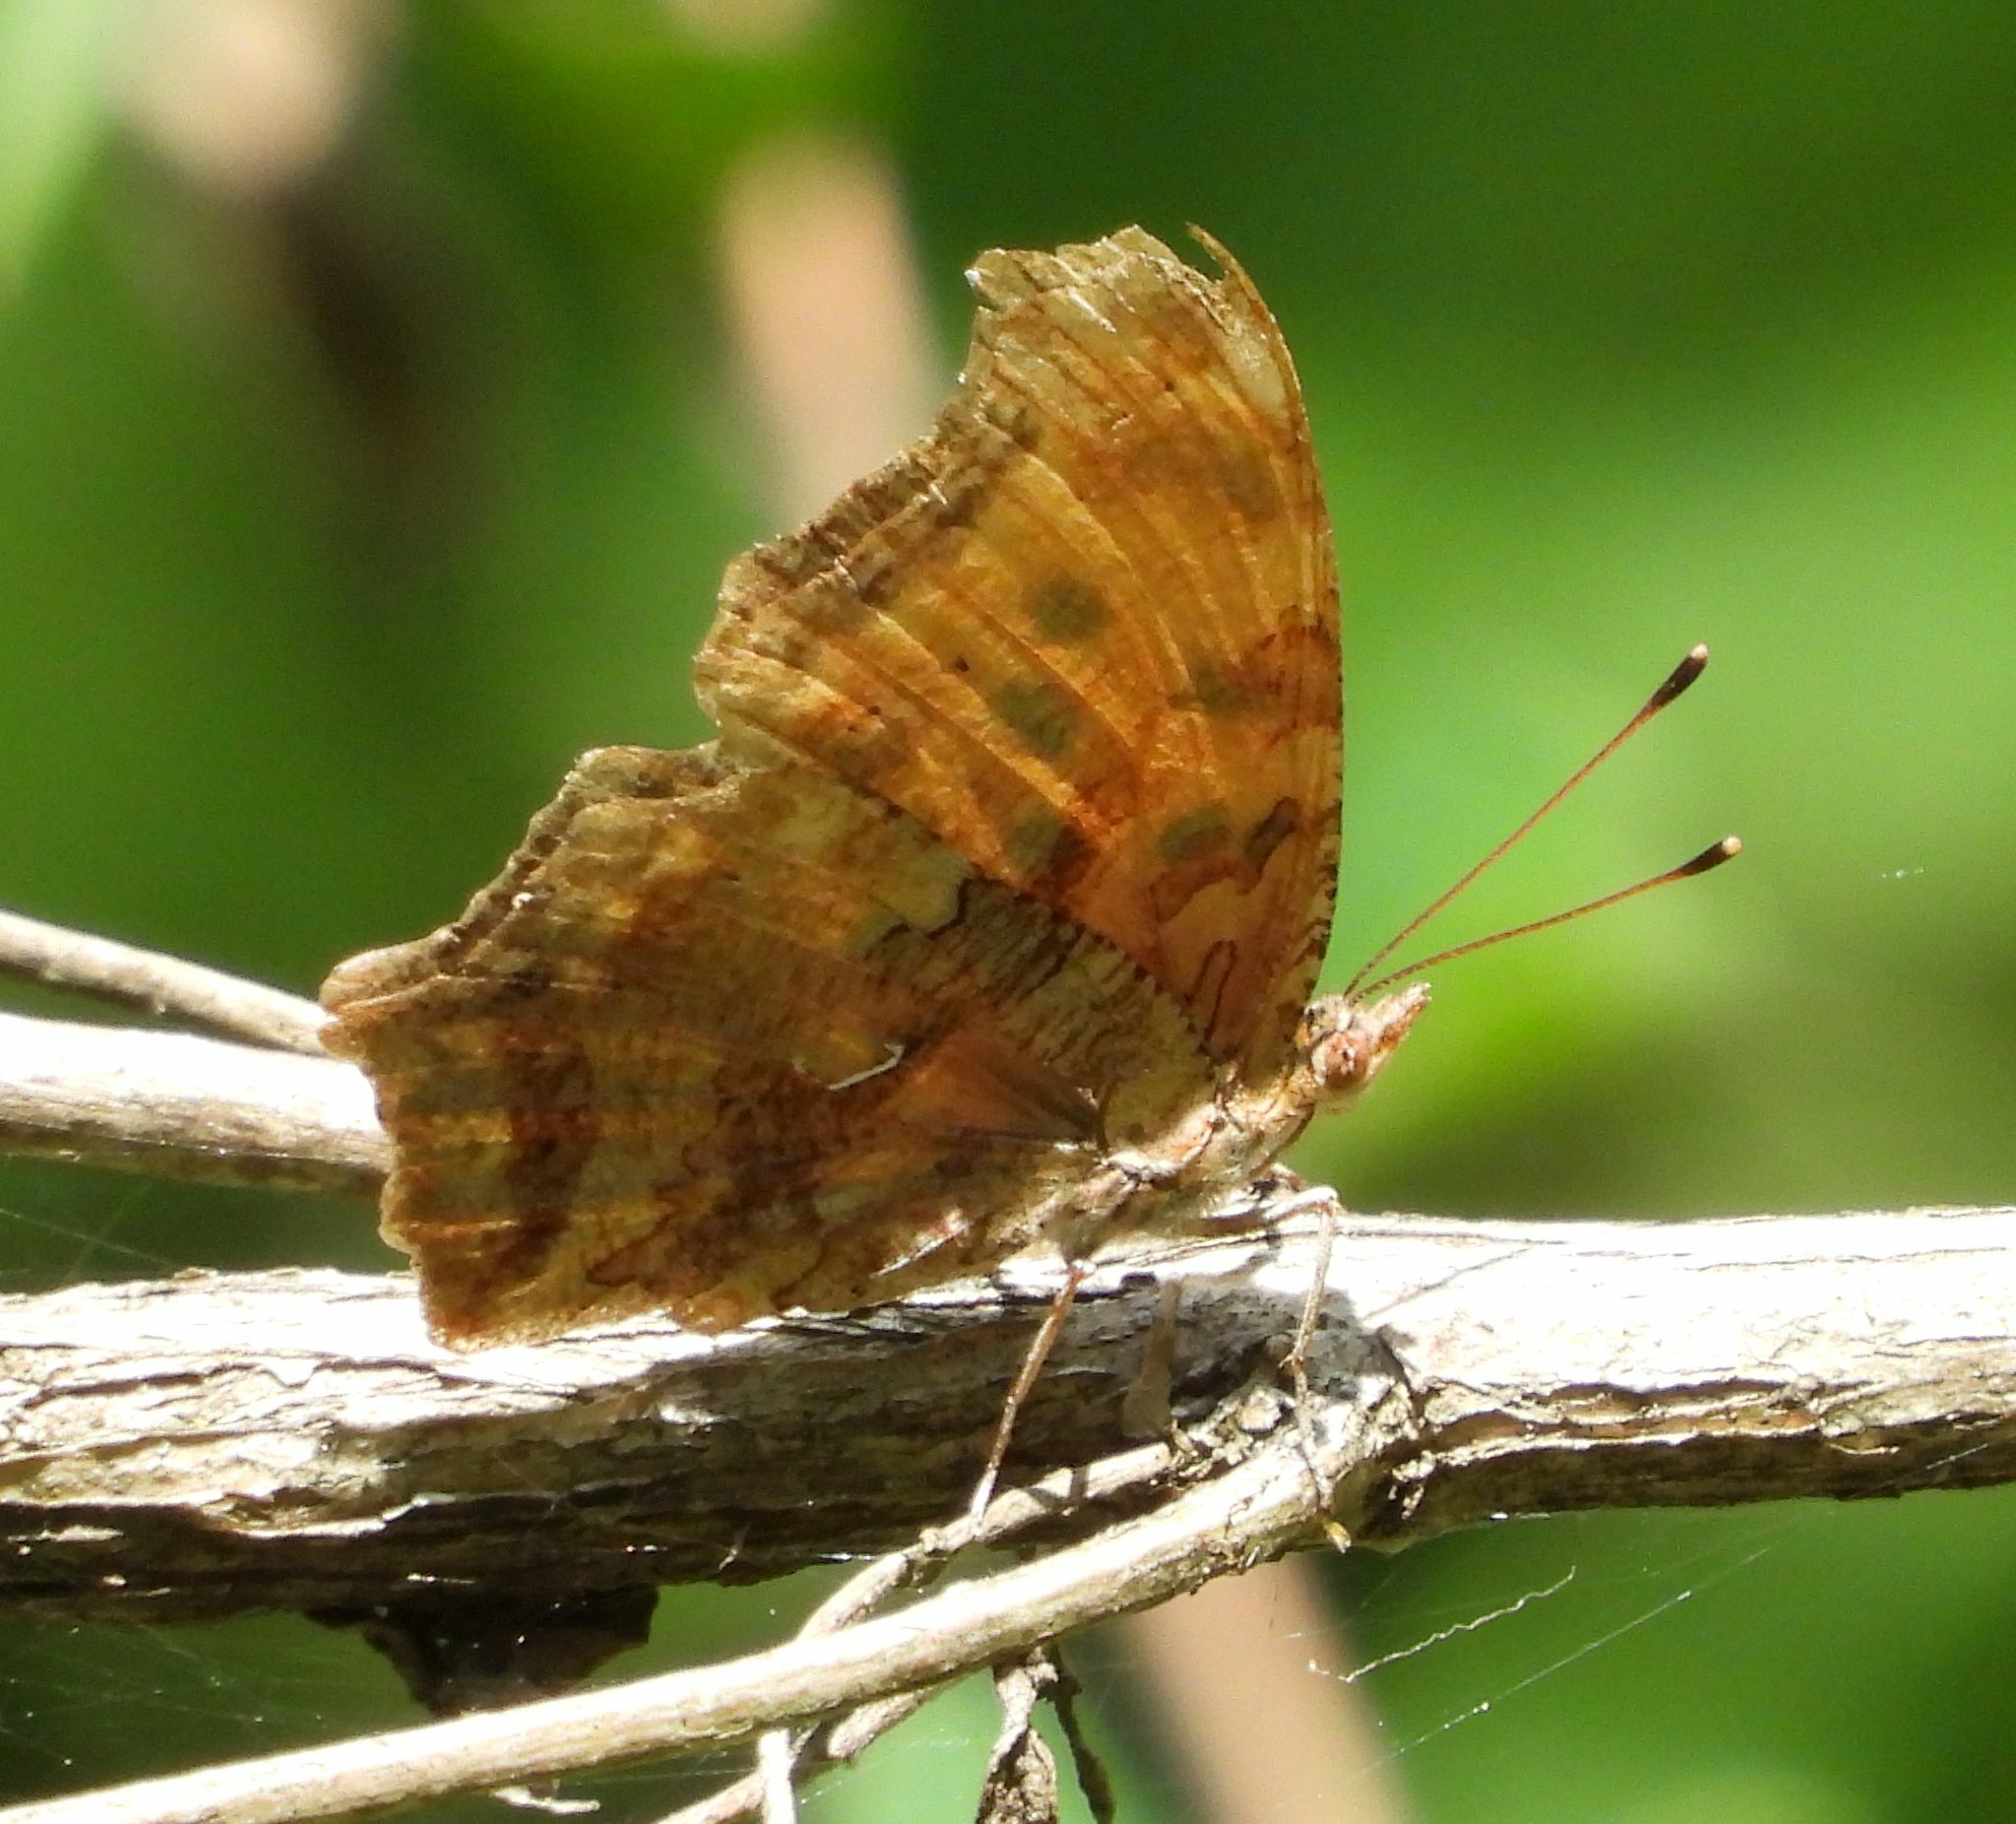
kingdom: Animalia
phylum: Arthropoda
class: Insecta
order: Lepidoptera
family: Nymphalidae
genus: Polygonia
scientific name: Polygonia comma
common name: Eastern comma
